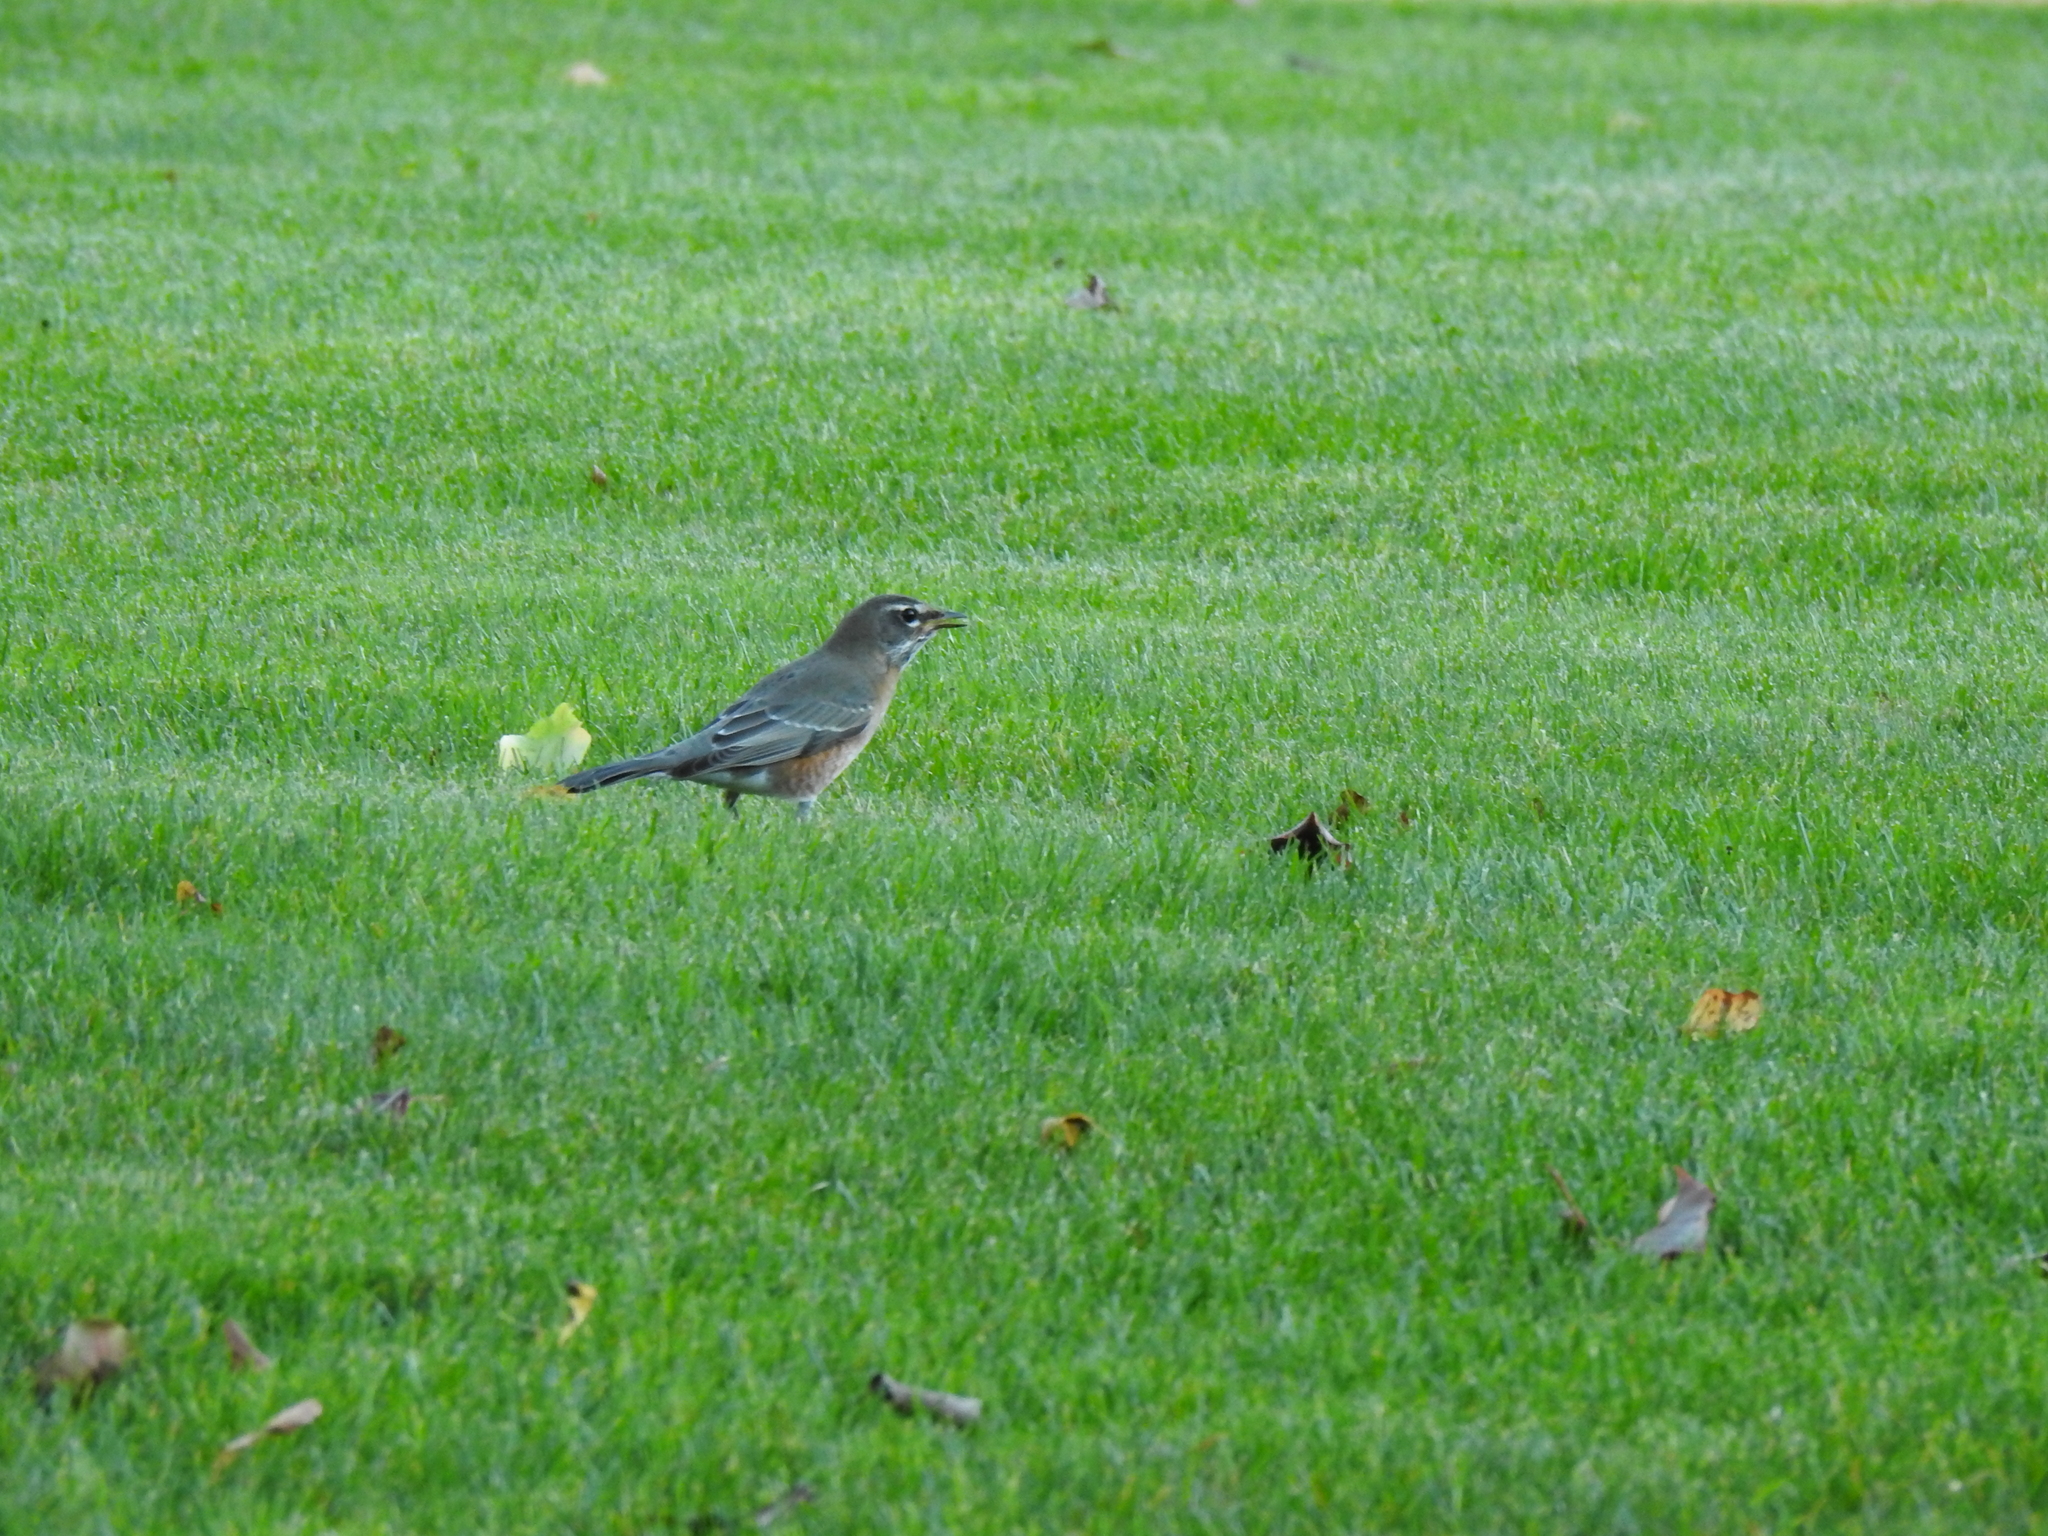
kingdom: Animalia
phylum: Chordata
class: Aves
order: Passeriformes
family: Turdidae
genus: Turdus
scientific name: Turdus migratorius
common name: American robin
